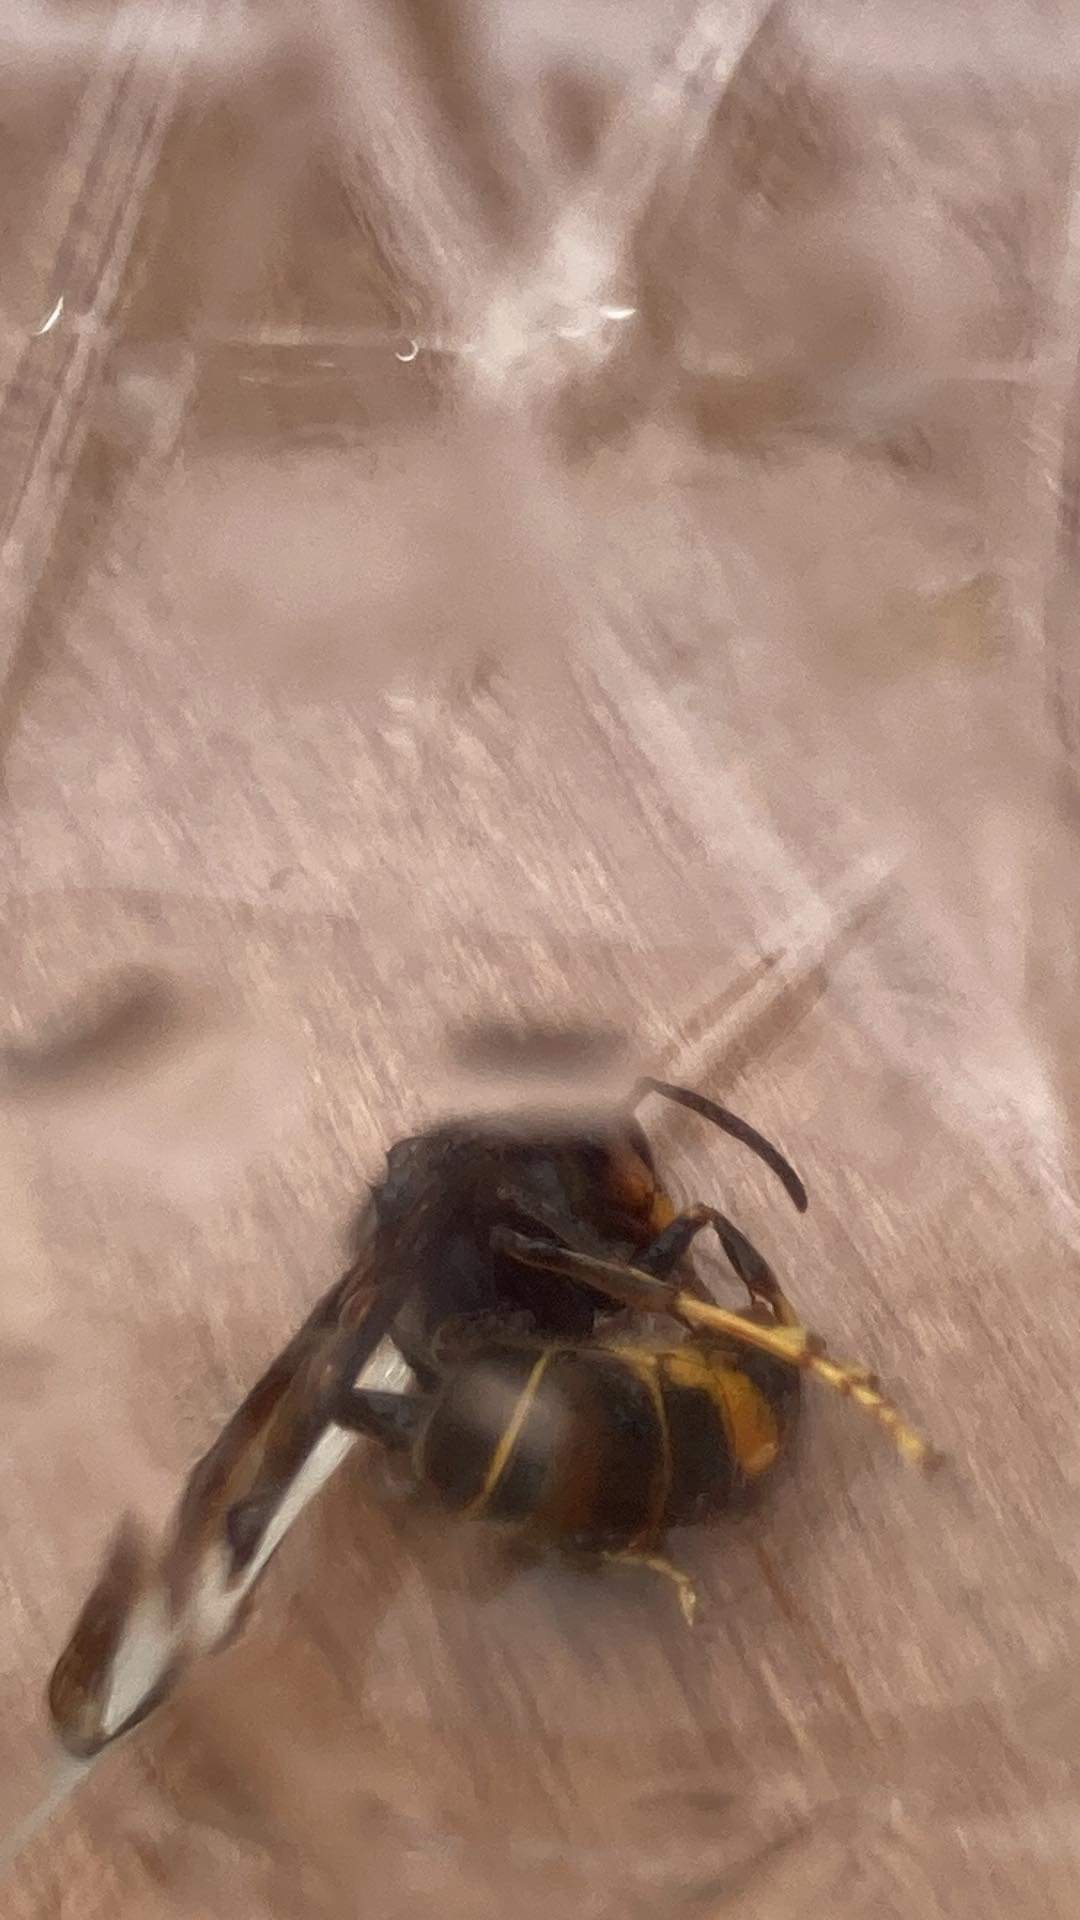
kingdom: Animalia
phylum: Arthropoda
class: Insecta
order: Hymenoptera
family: Vespidae
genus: Vespa
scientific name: Vespa velutina
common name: Asian hornet
